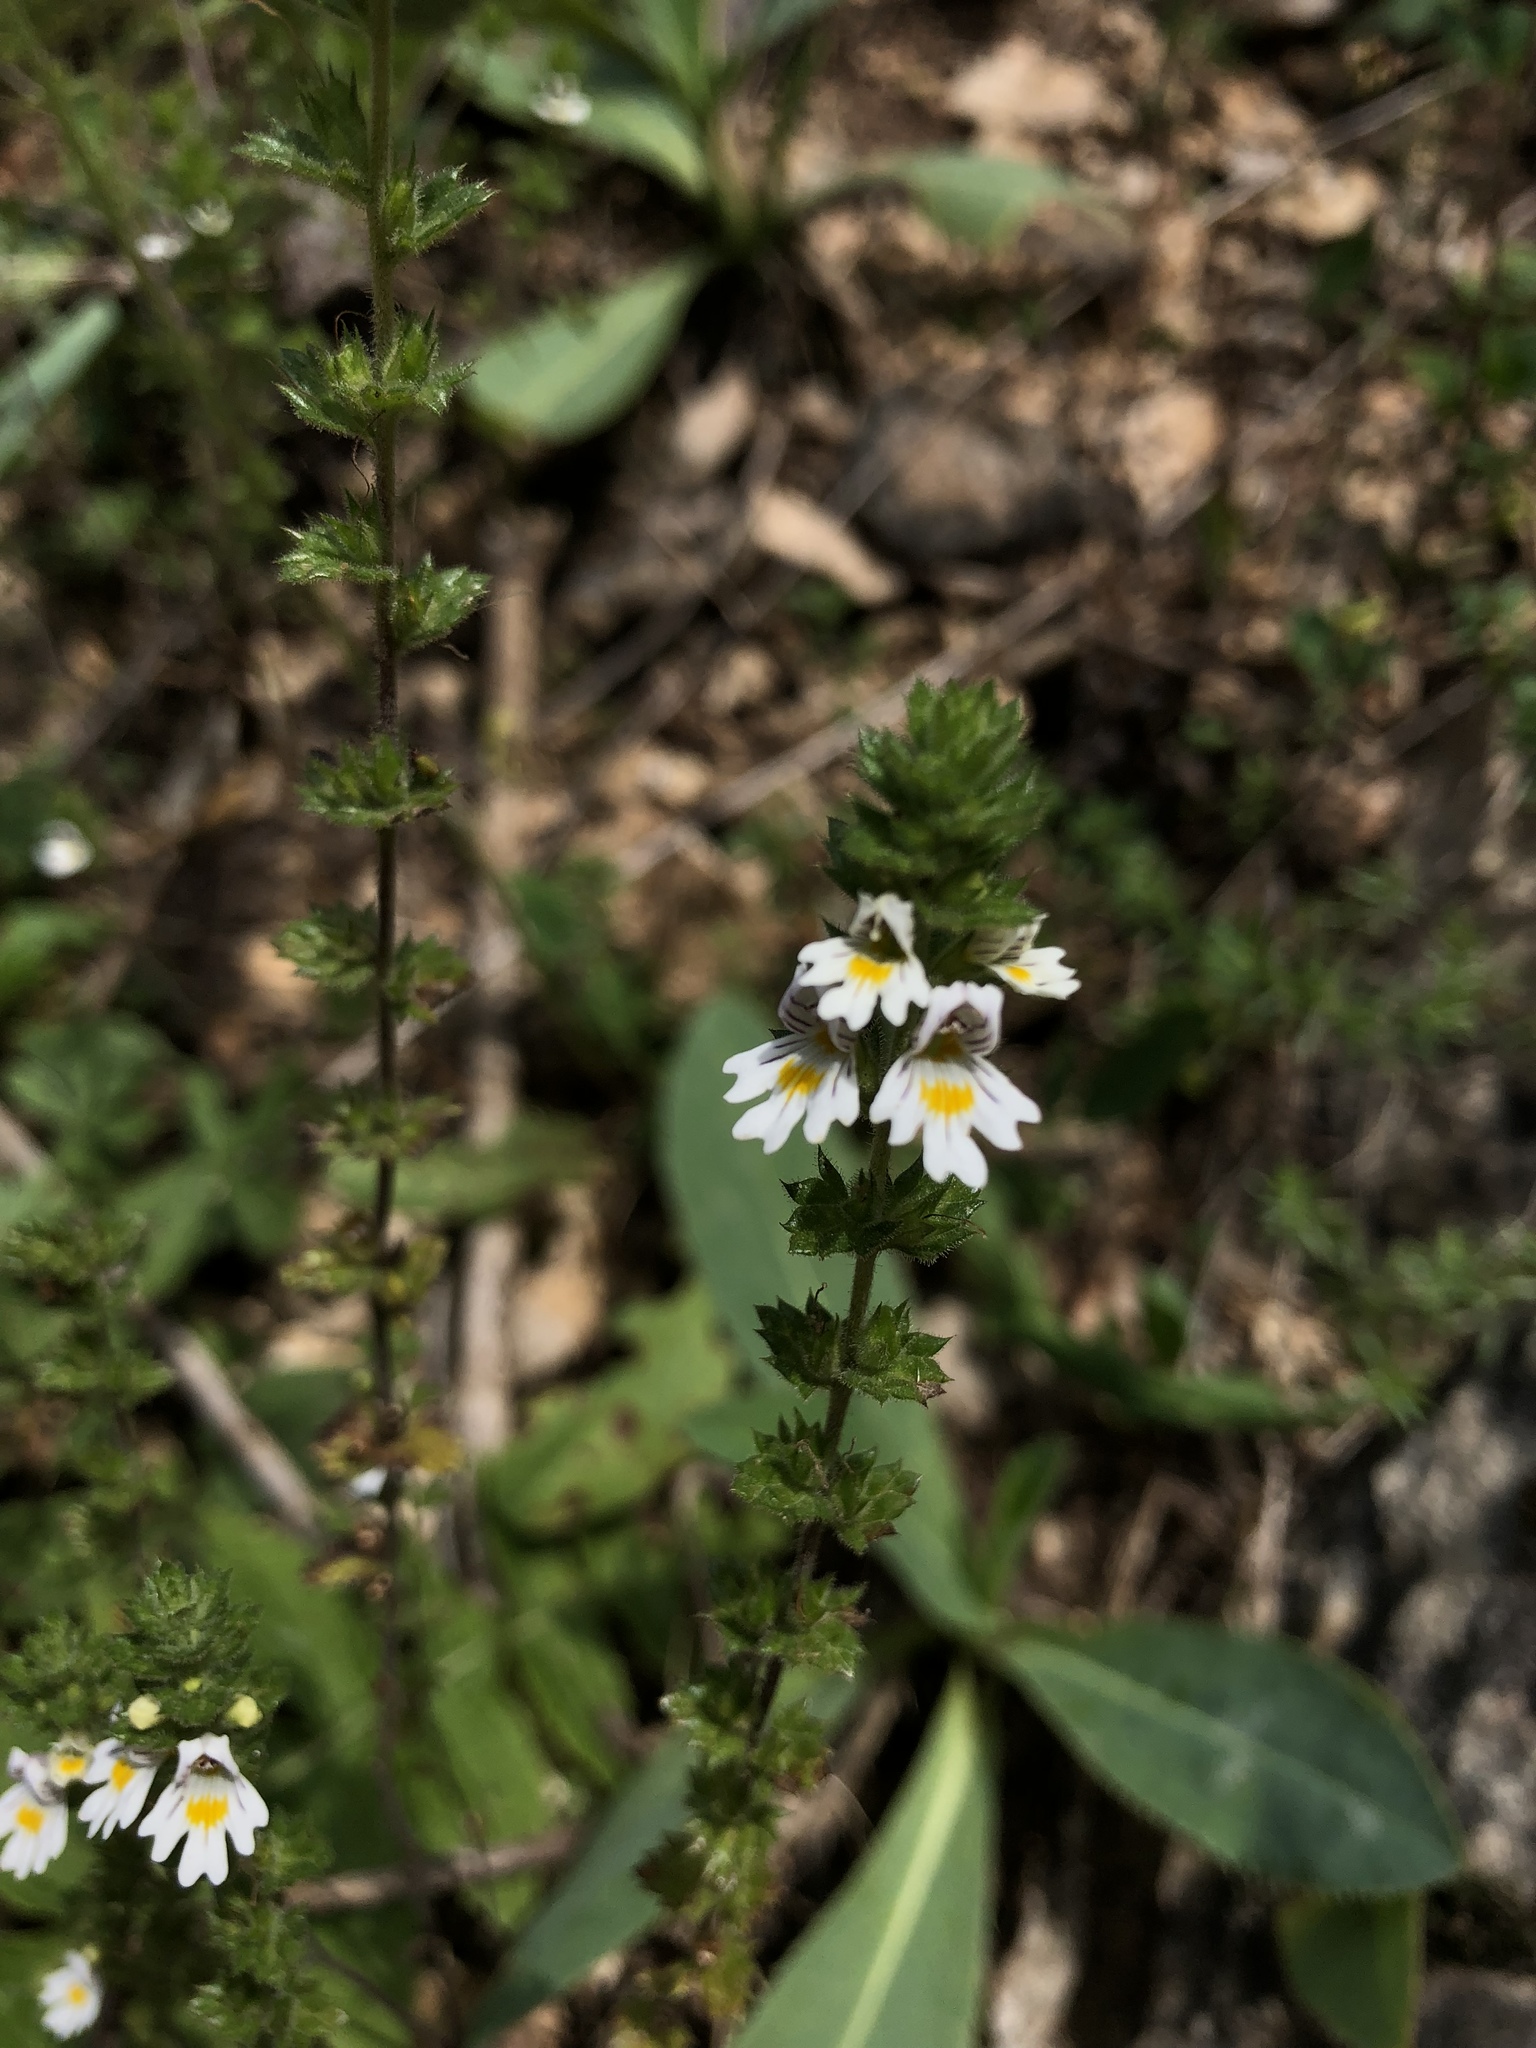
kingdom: Plantae
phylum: Tracheophyta
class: Magnoliopsida
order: Lamiales
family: Orobanchaceae
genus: Euphrasia
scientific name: Euphrasia nemorosa
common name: Common eyebright
